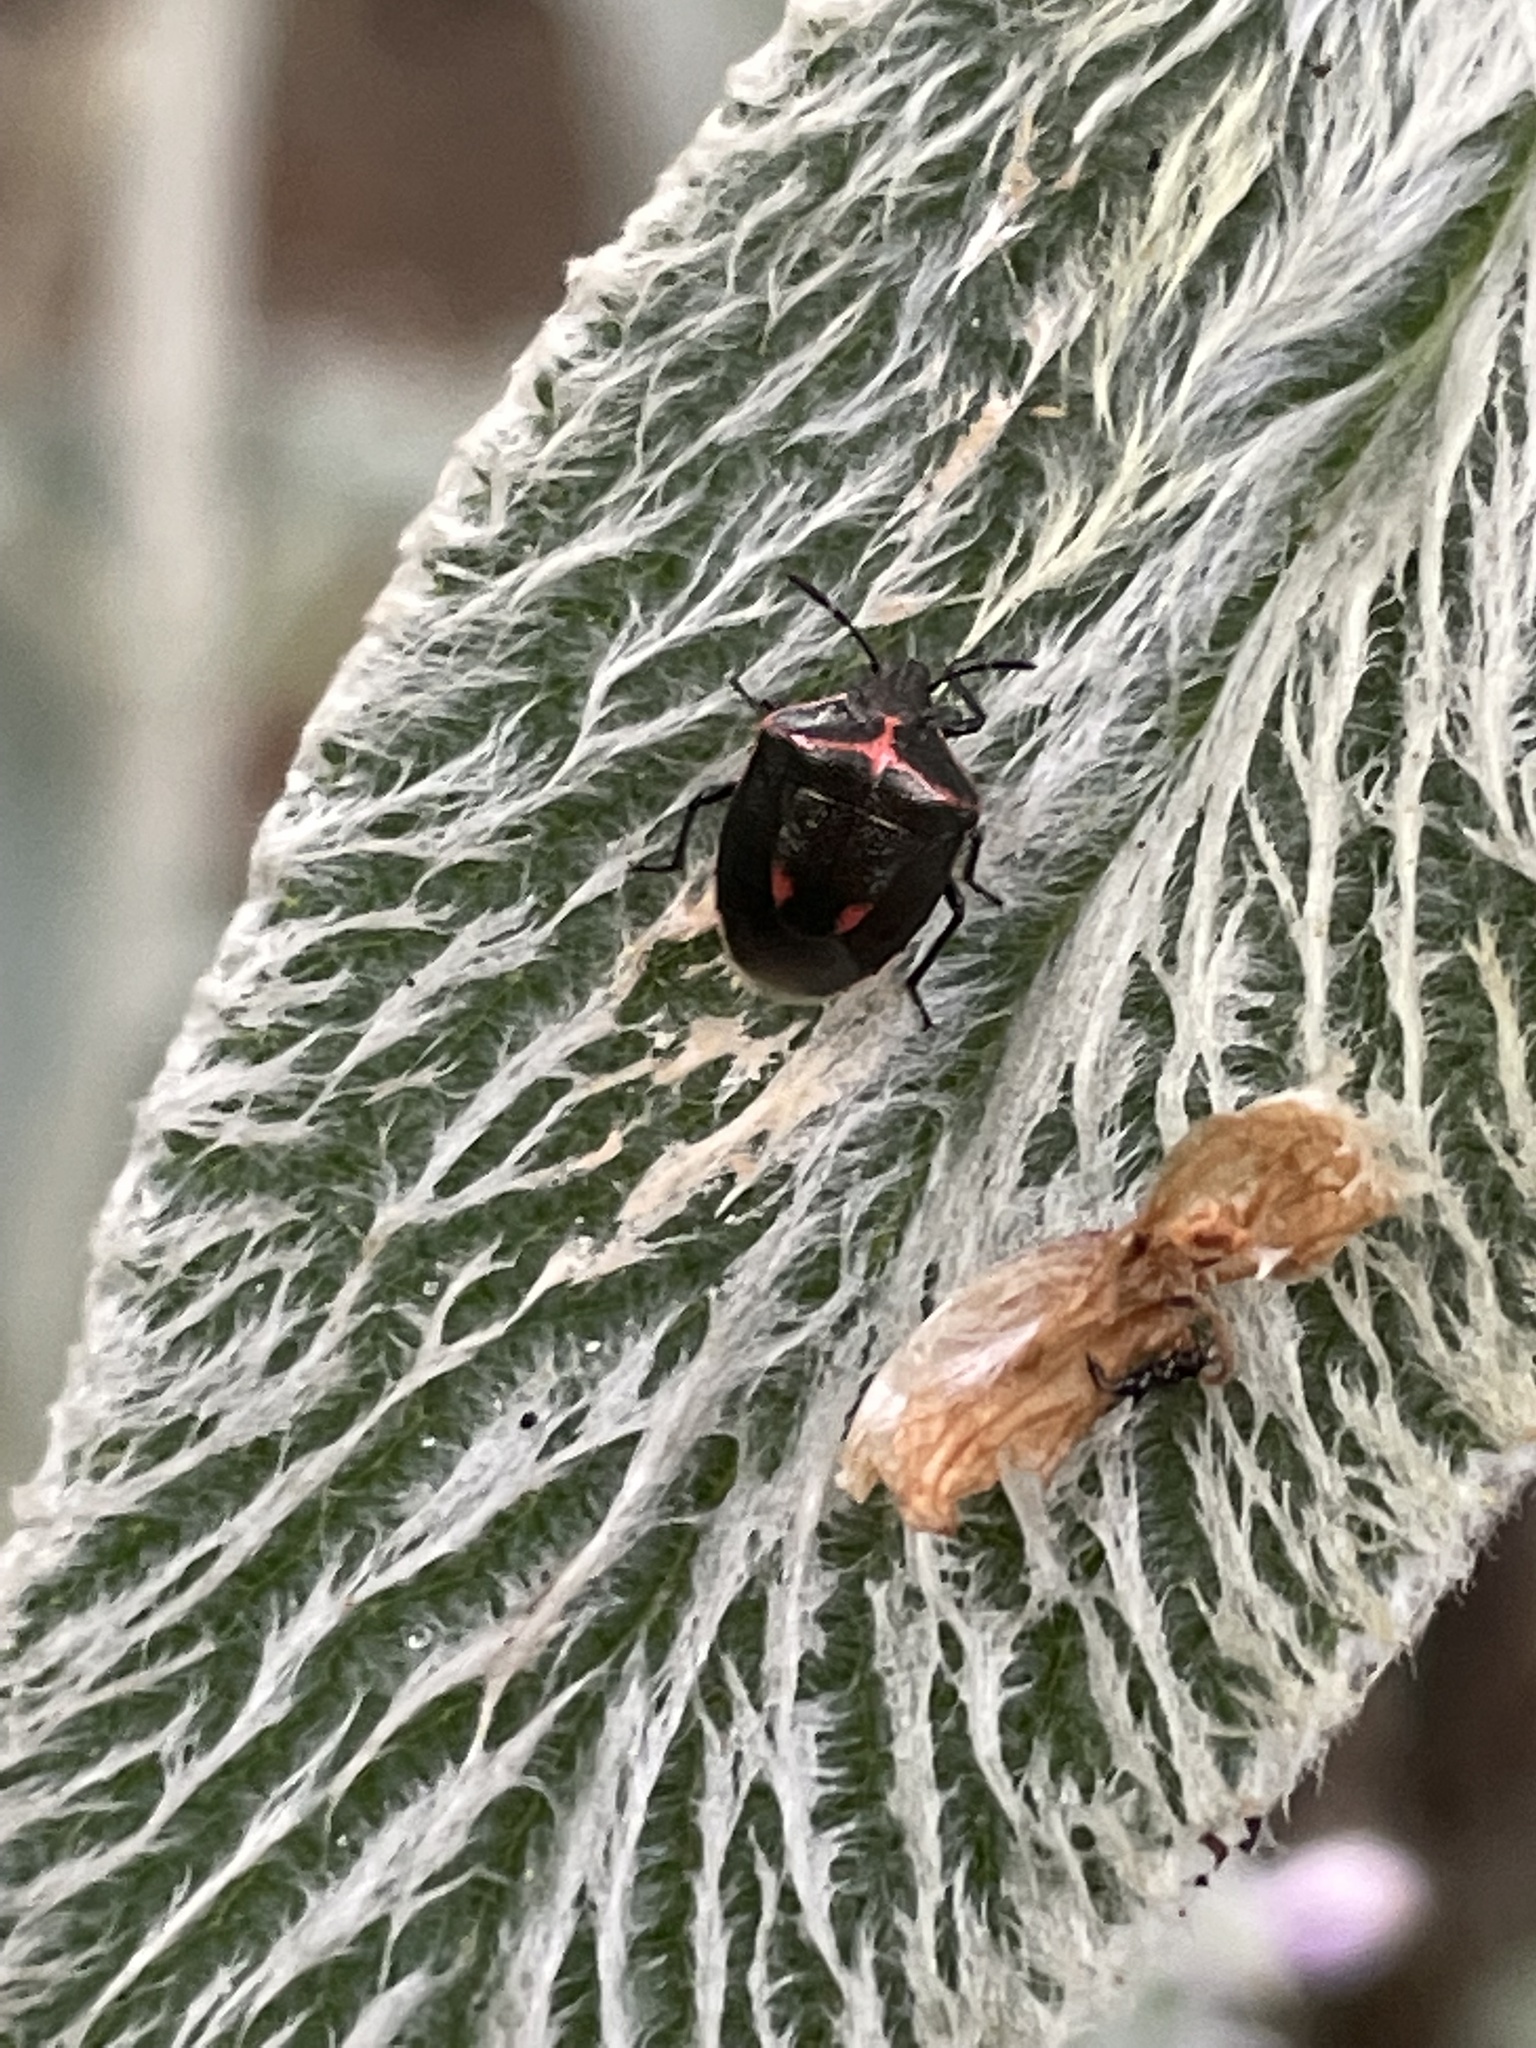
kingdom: Animalia
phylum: Arthropoda
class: Insecta
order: Hemiptera
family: Pentatomidae
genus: Cosmopepla
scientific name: Cosmopepla lintneriana
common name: Twice-stabbed stink bug
